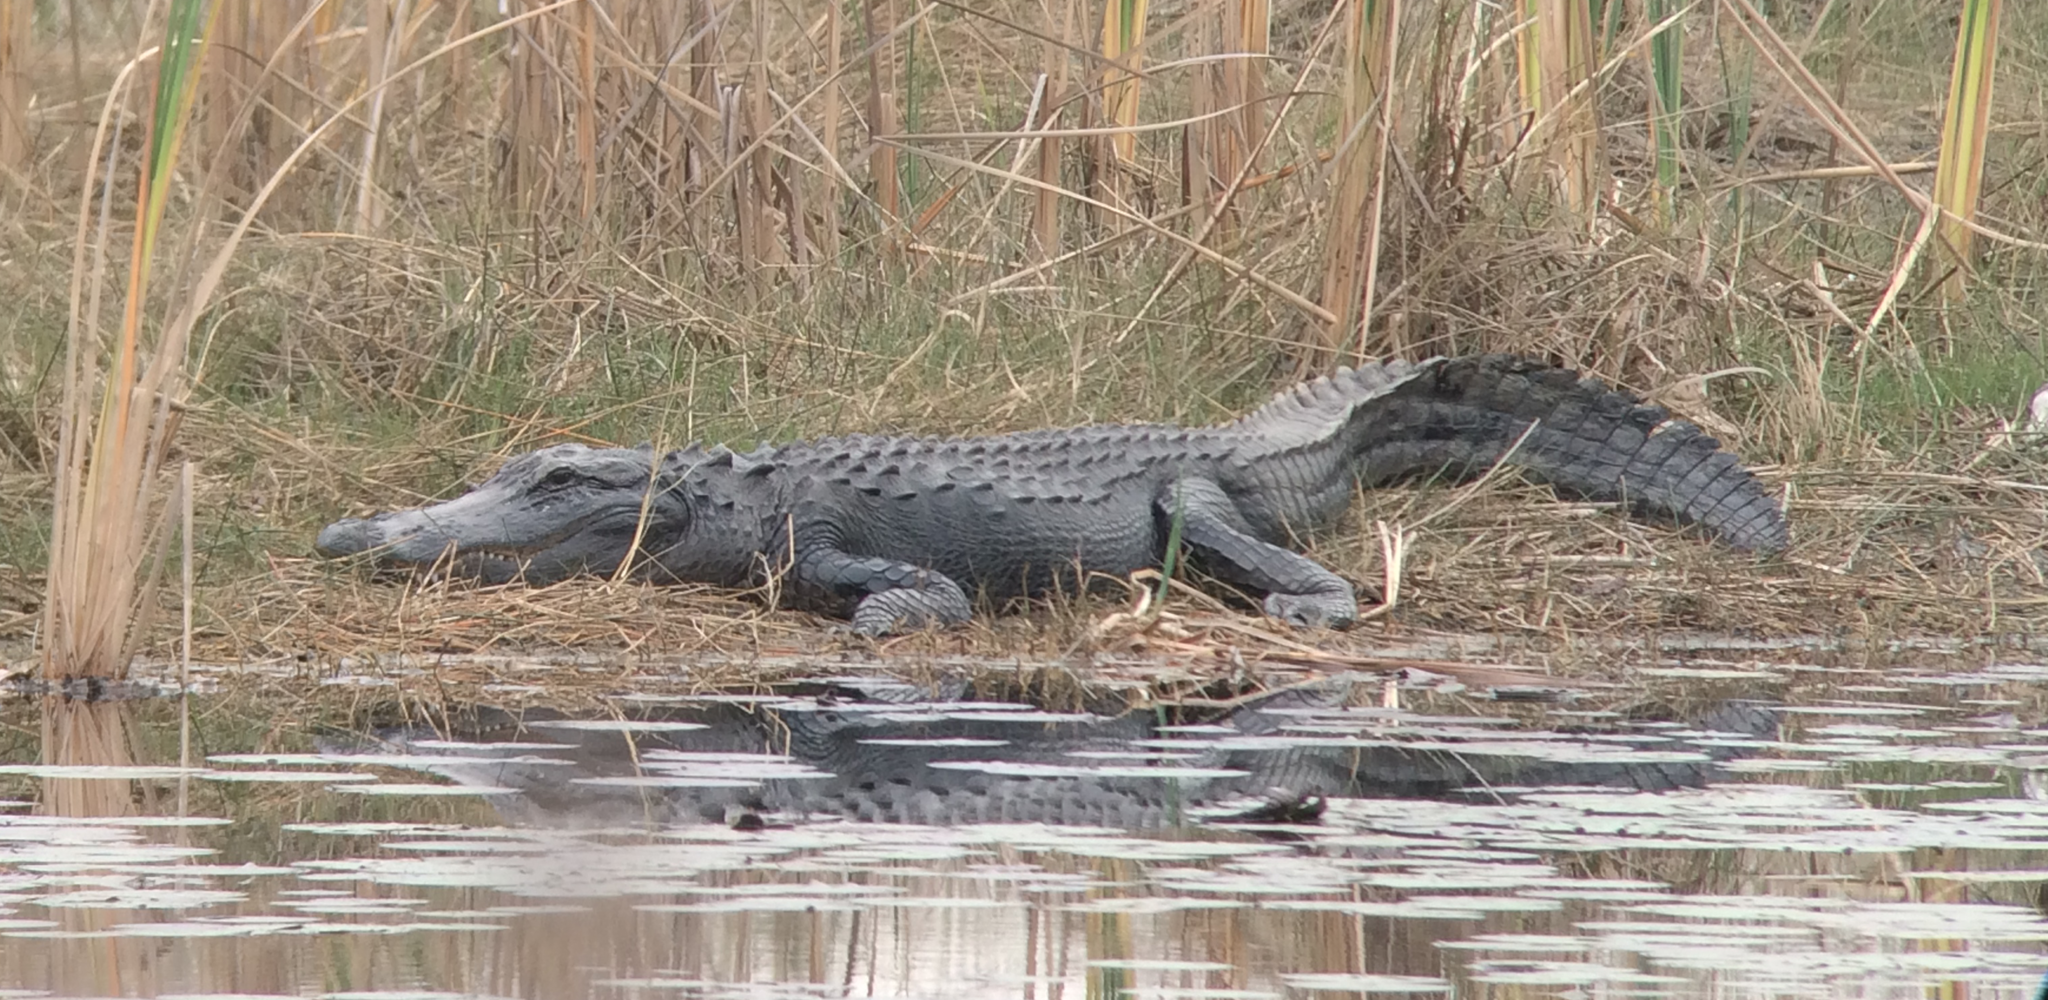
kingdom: Animalia
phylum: Chordata
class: Crocodylia
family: Alligatoridae
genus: Alligator
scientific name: Alligator mississippiensis
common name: American alligator
